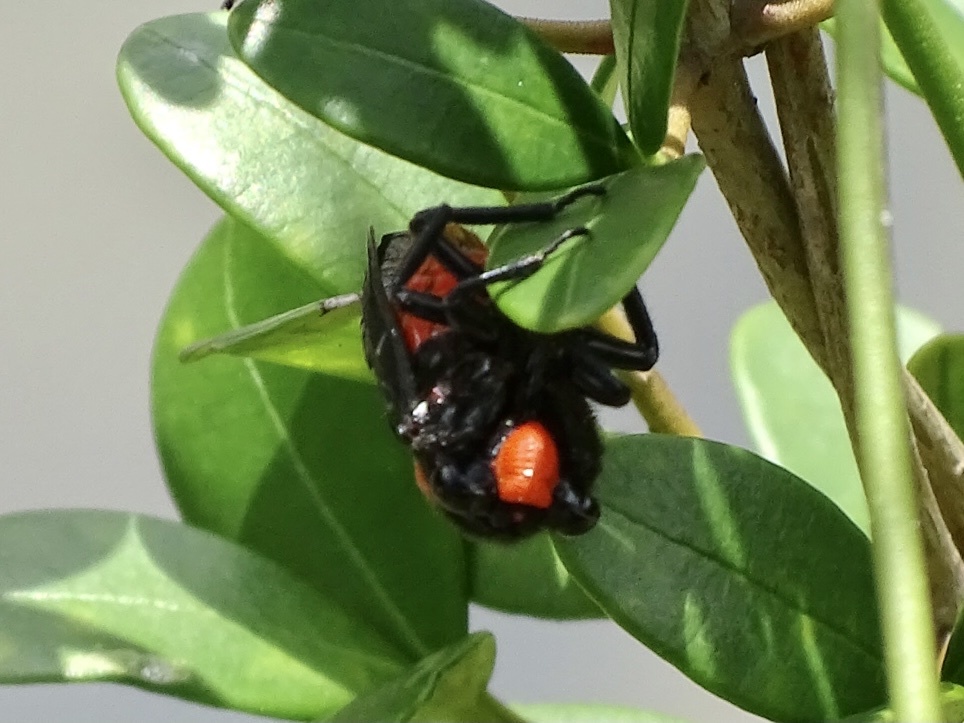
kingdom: Animalia
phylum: Arthropoda
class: Insecta
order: Hemiptera
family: Cicadidae
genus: Huechys
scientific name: Huechys sanguinea
